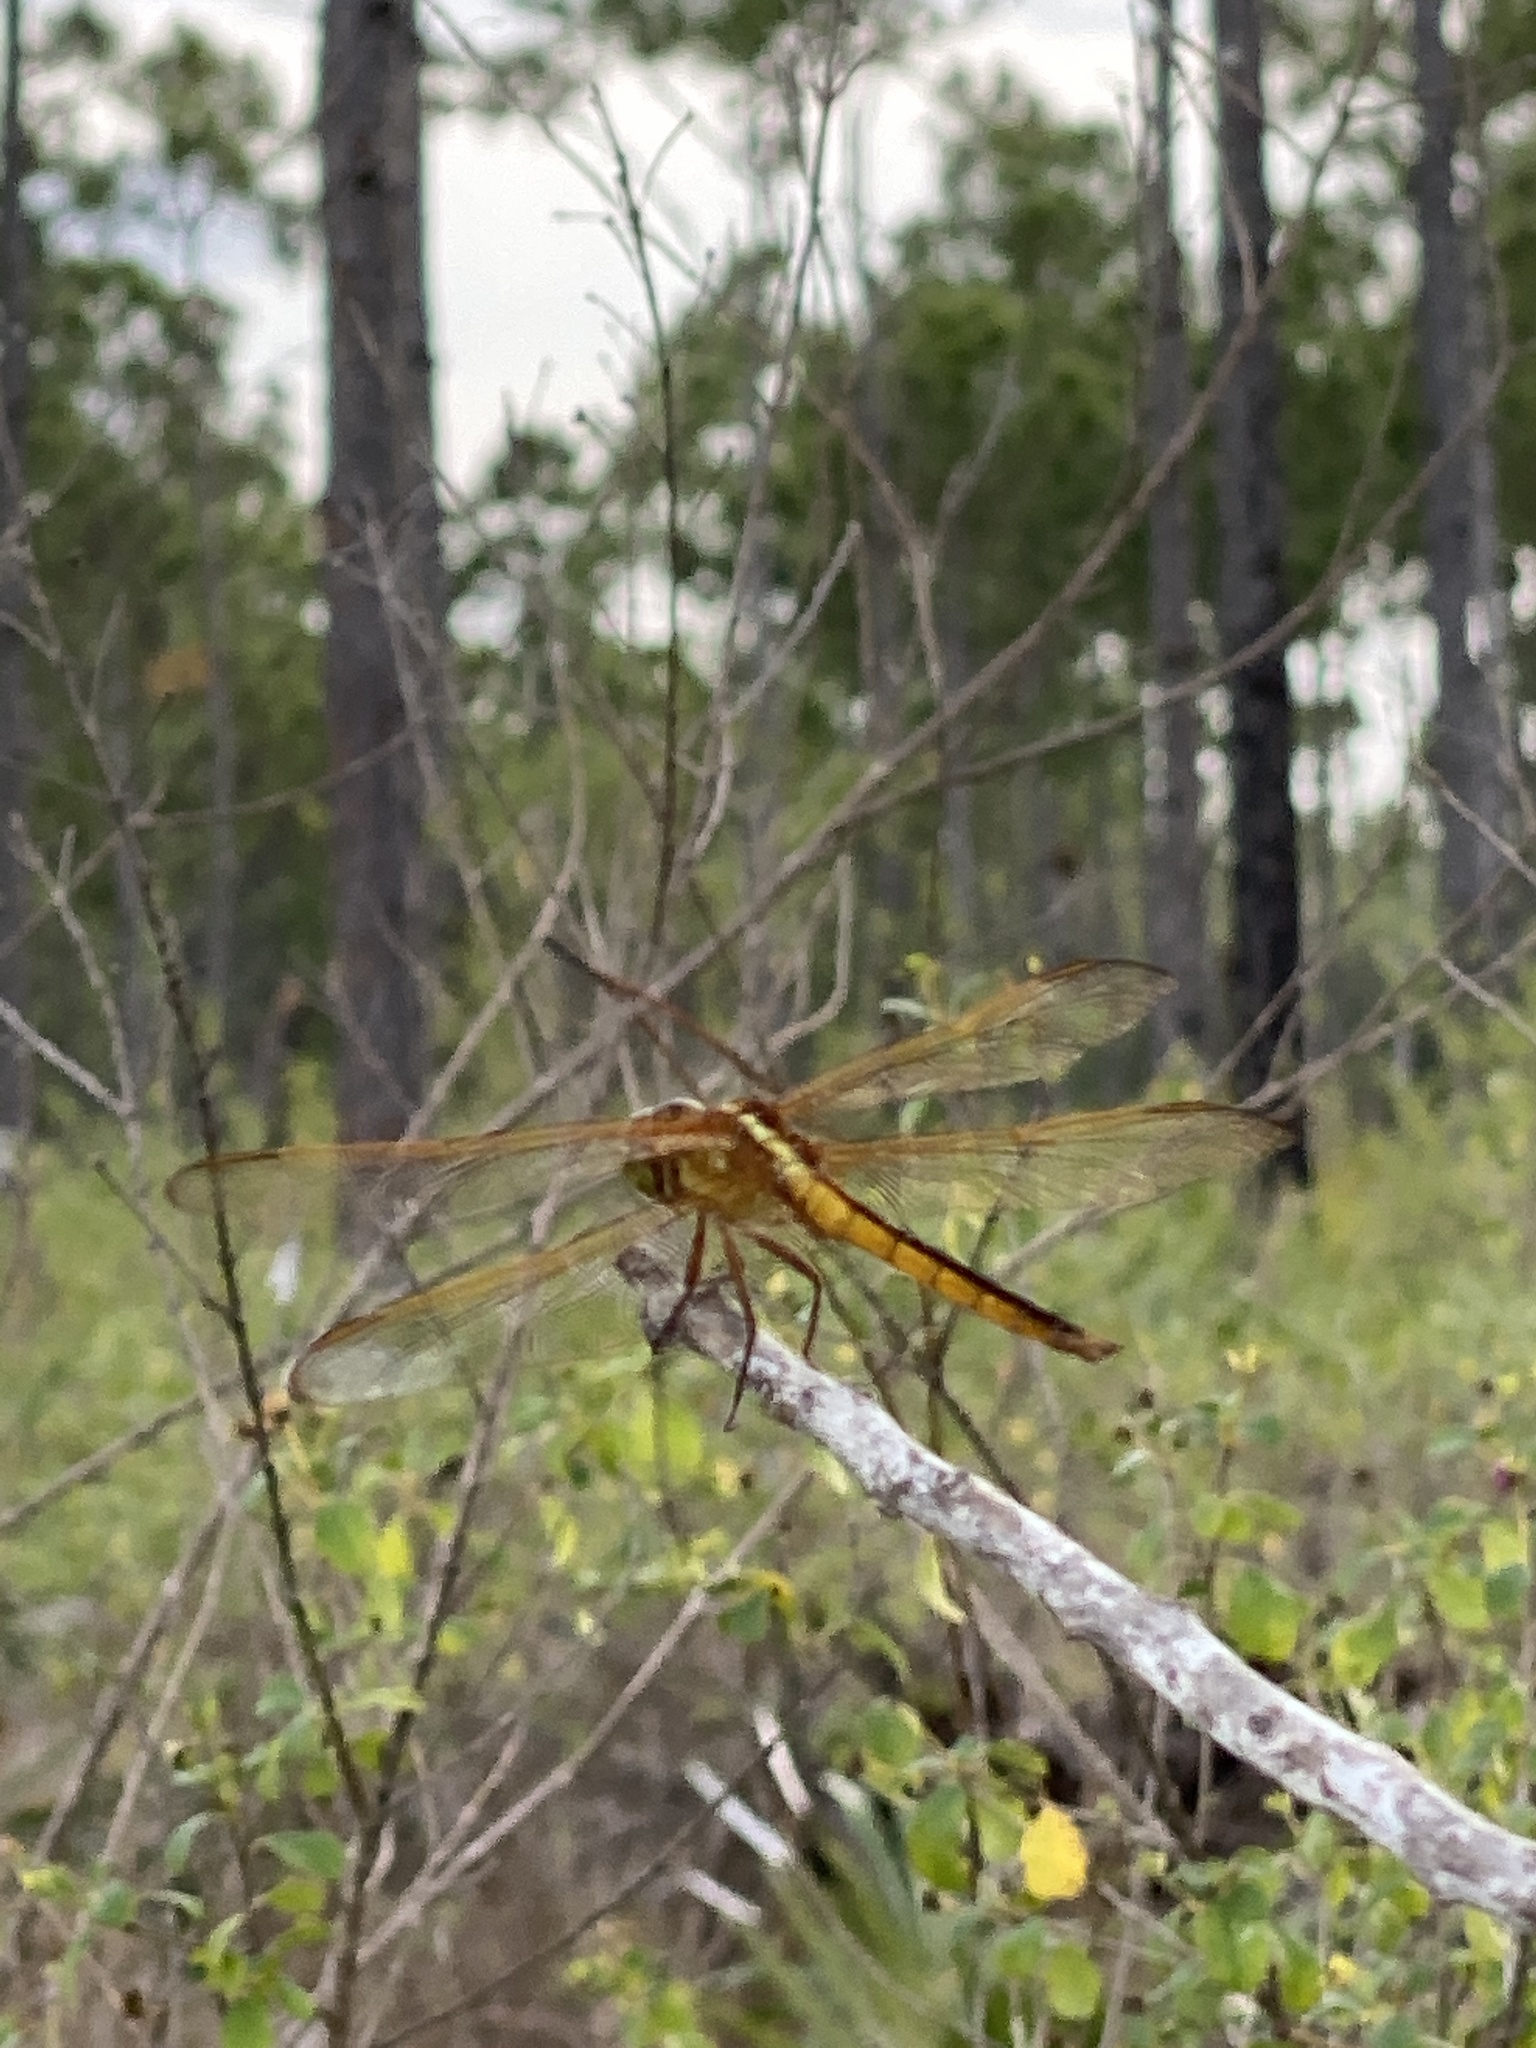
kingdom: Animalia
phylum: Arthropoda
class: Insecta
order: Odonata
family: Libellulidae
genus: Libellula
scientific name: Libellula needhami
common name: Needham's skimmer
